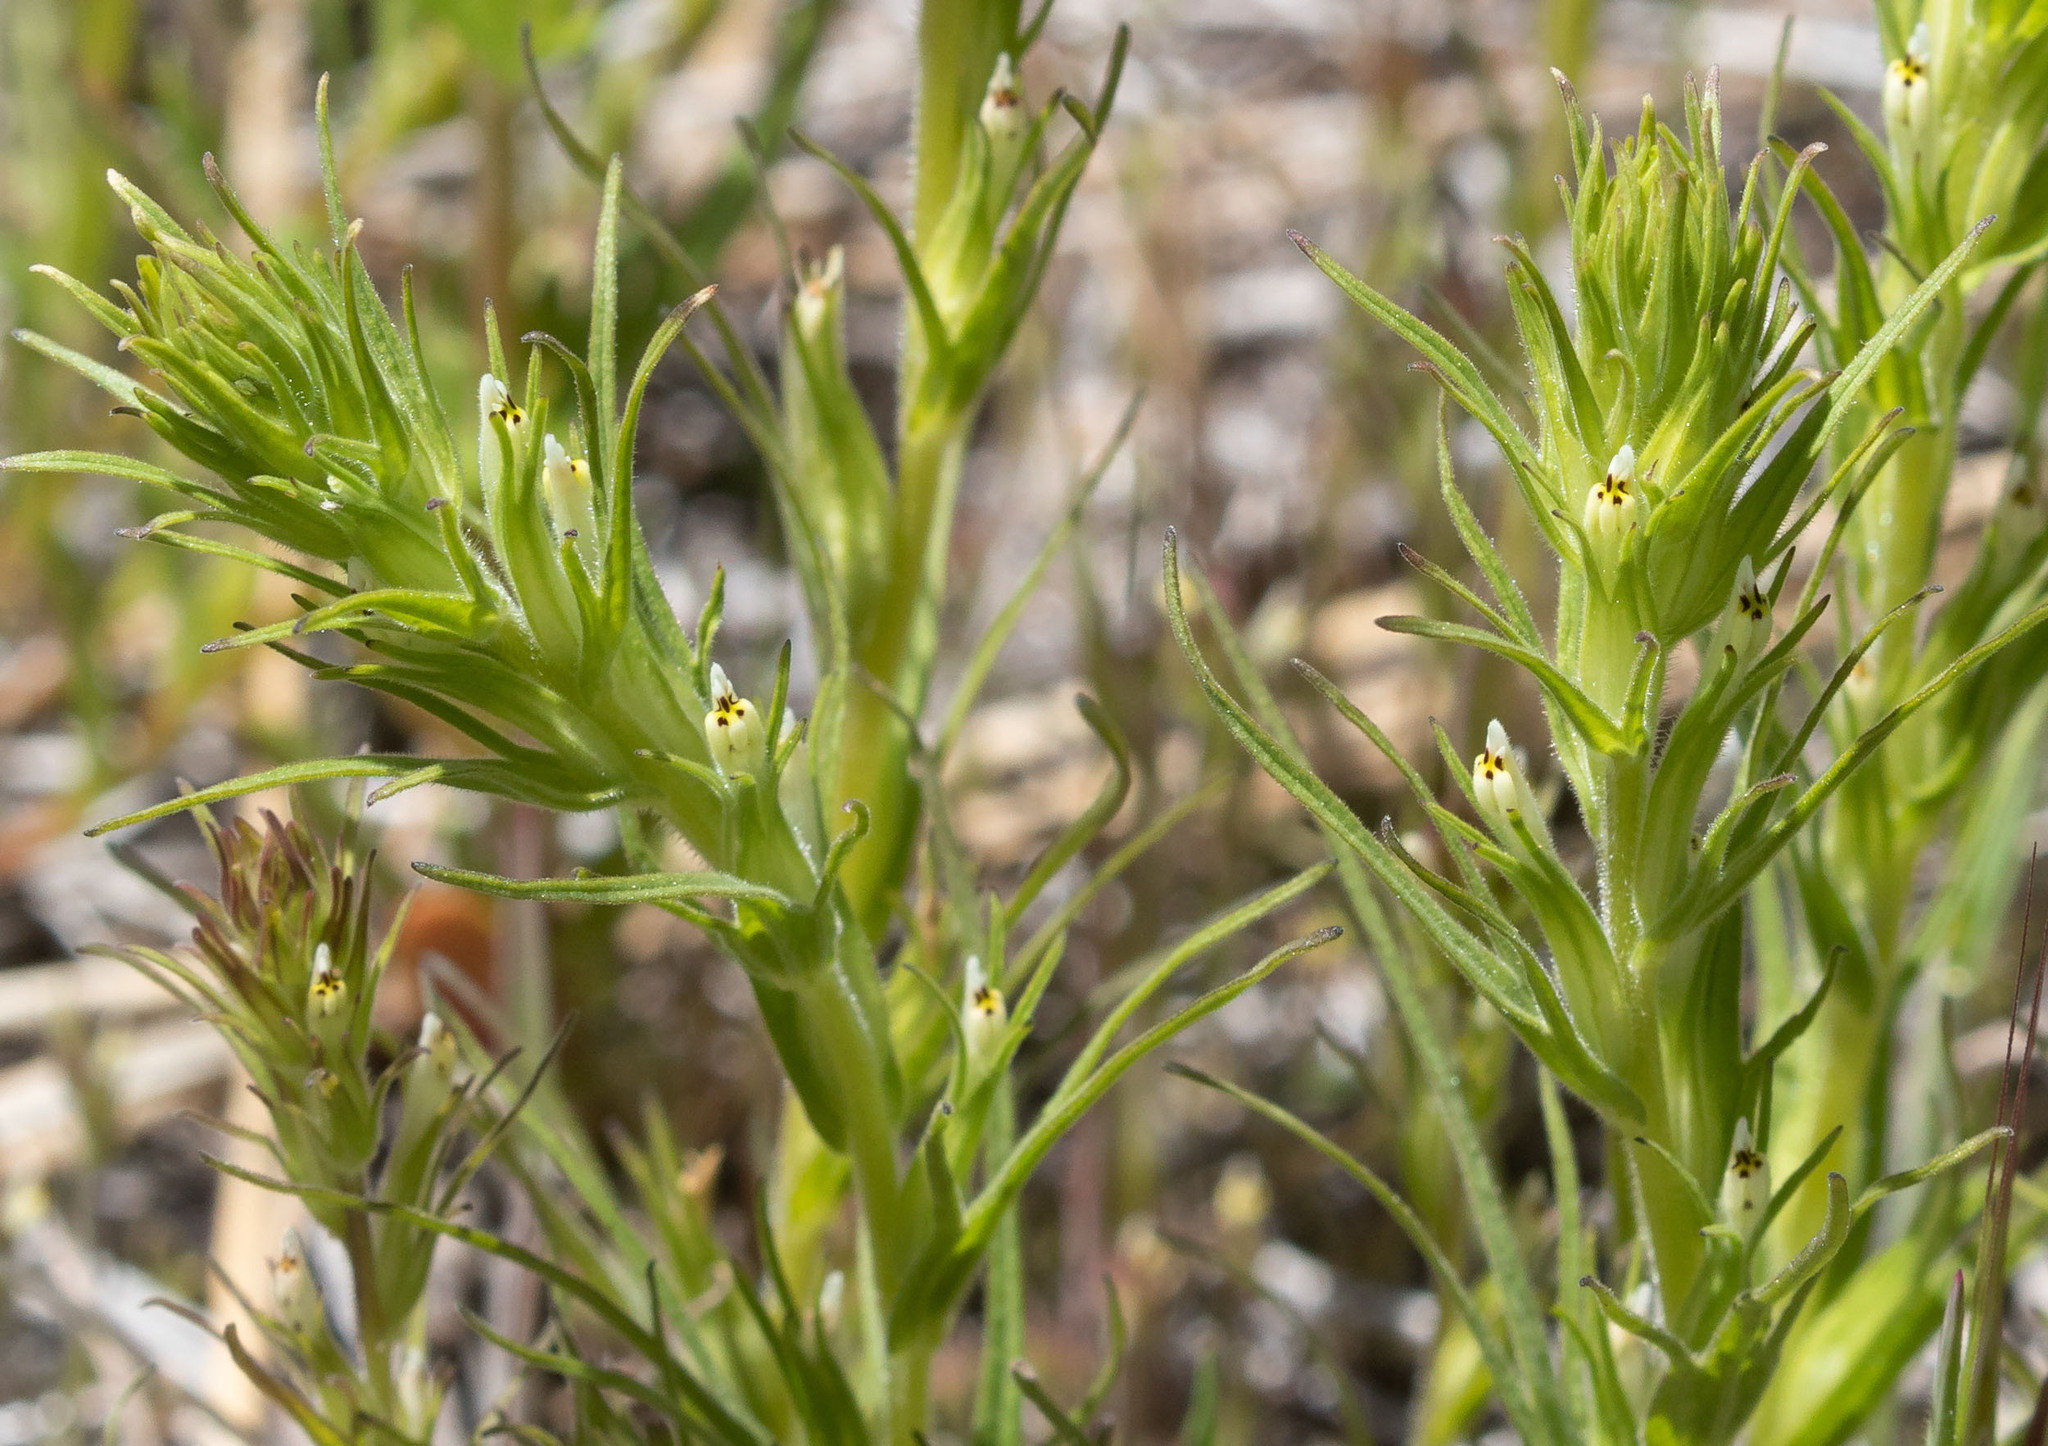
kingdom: Plantae
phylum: Tracheophyta
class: Magnoliopsida
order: Lamiales
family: Orobanchaceae
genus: Castilleja
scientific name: Castilleja attenuata
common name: Valley tassels
